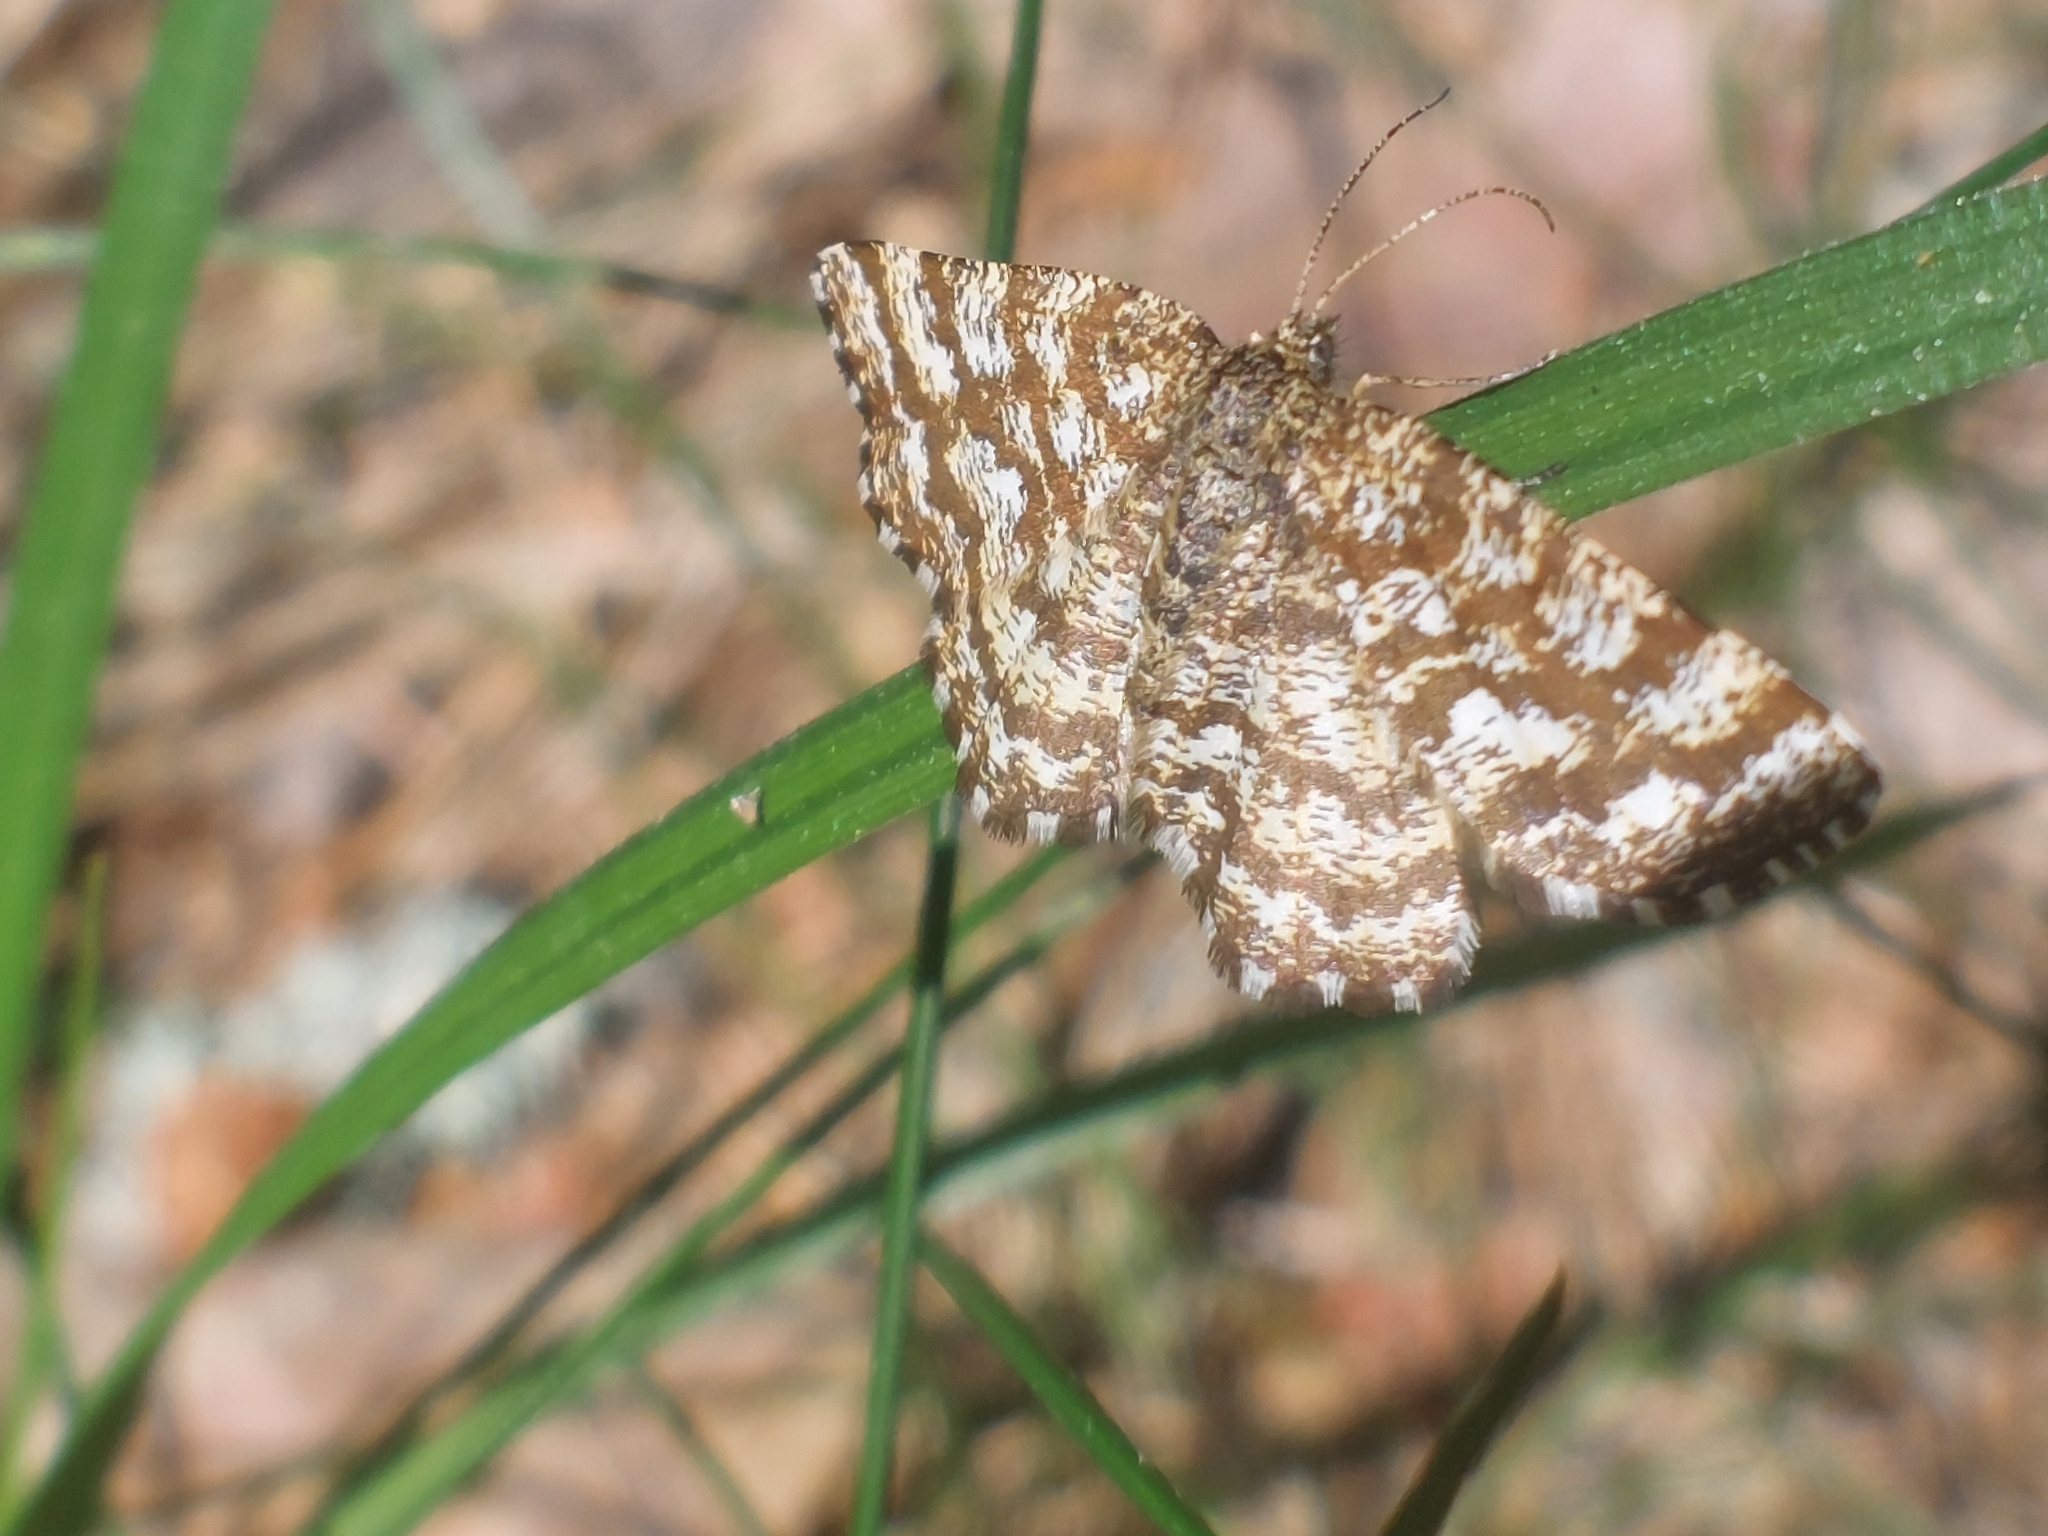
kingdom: Animalia
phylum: Arthropoda
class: Insecta
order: Lepidoptera
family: Geometridae
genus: Ematurga
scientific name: Ematurga atomaria
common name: Common heath
